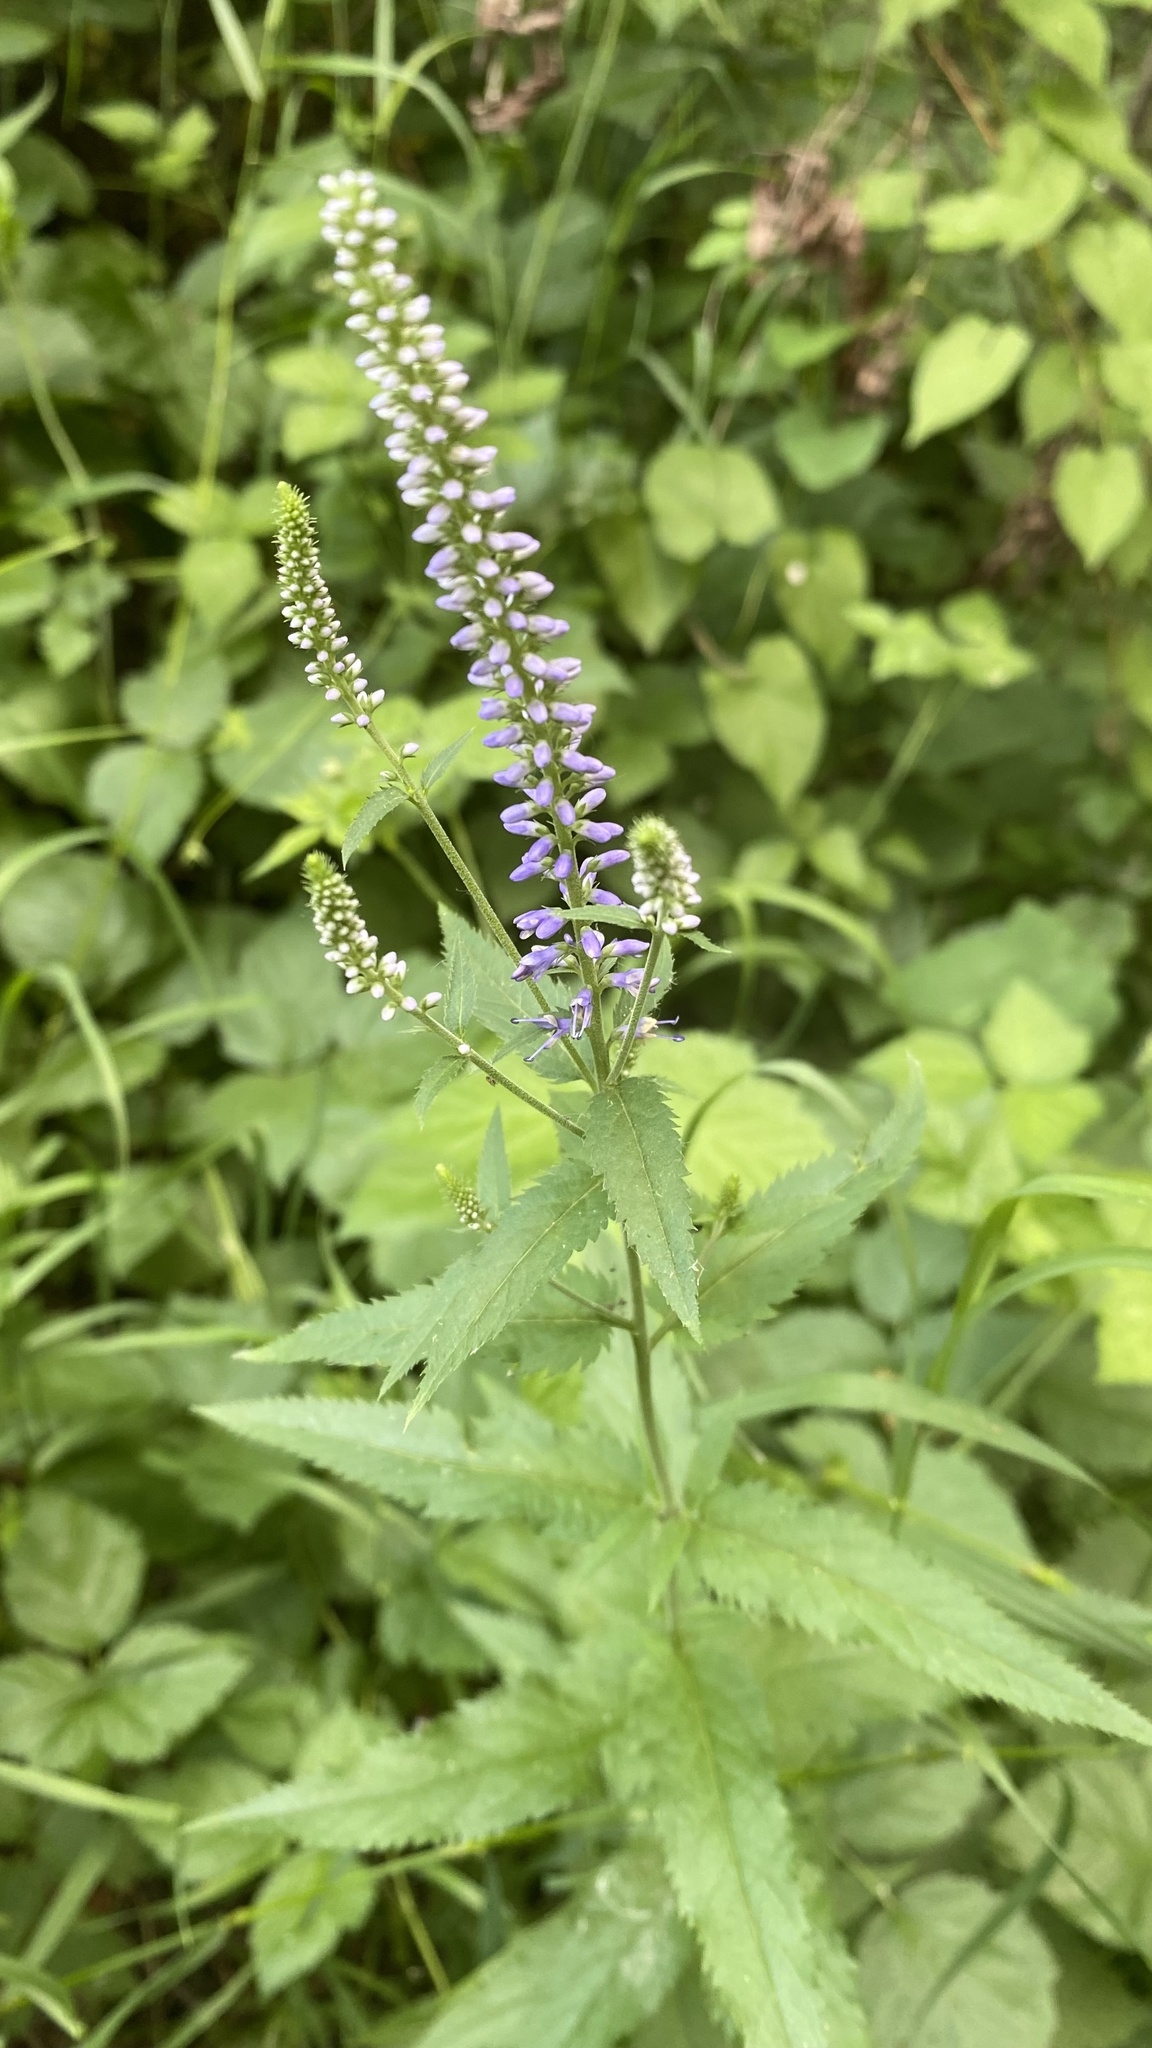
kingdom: Plantae
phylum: Tracheophyta
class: Magnoliopsida
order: Lamiales
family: Plantaginaceae
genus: Veronica
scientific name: Veronica longifolia
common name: Garden speedwell
